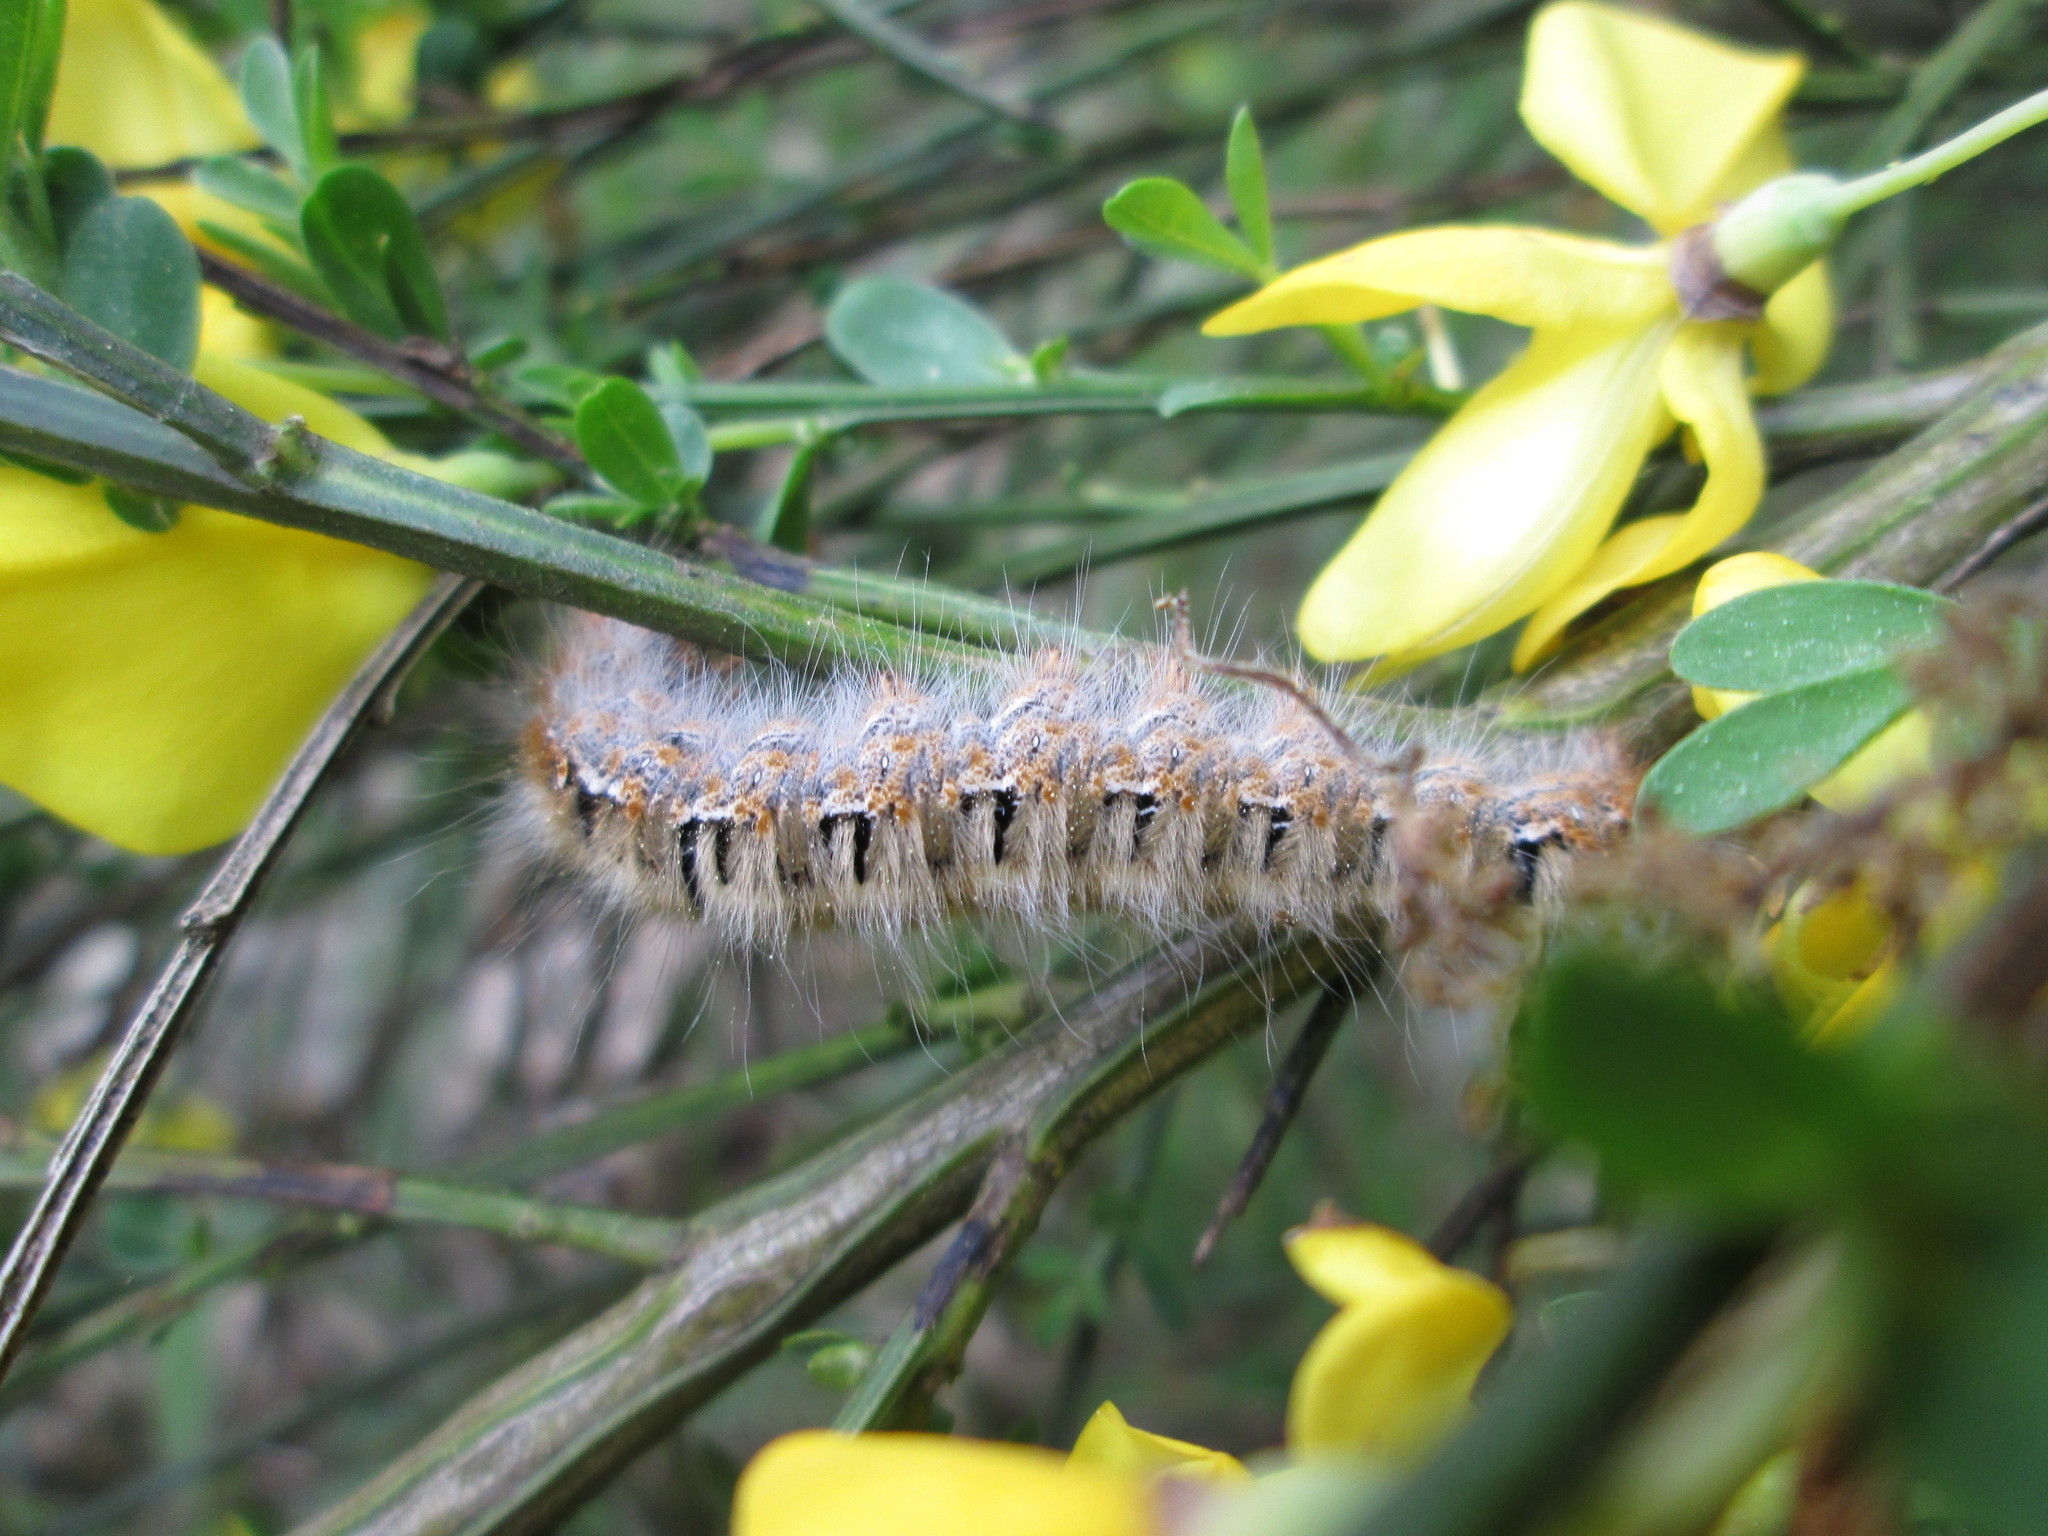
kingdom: Animalia
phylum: Arthropoda
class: Insecta
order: Lepidoptera
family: Lasiocampidae
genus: Lasiocampa
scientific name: Lasiocampa quercus
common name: Oak eggar
